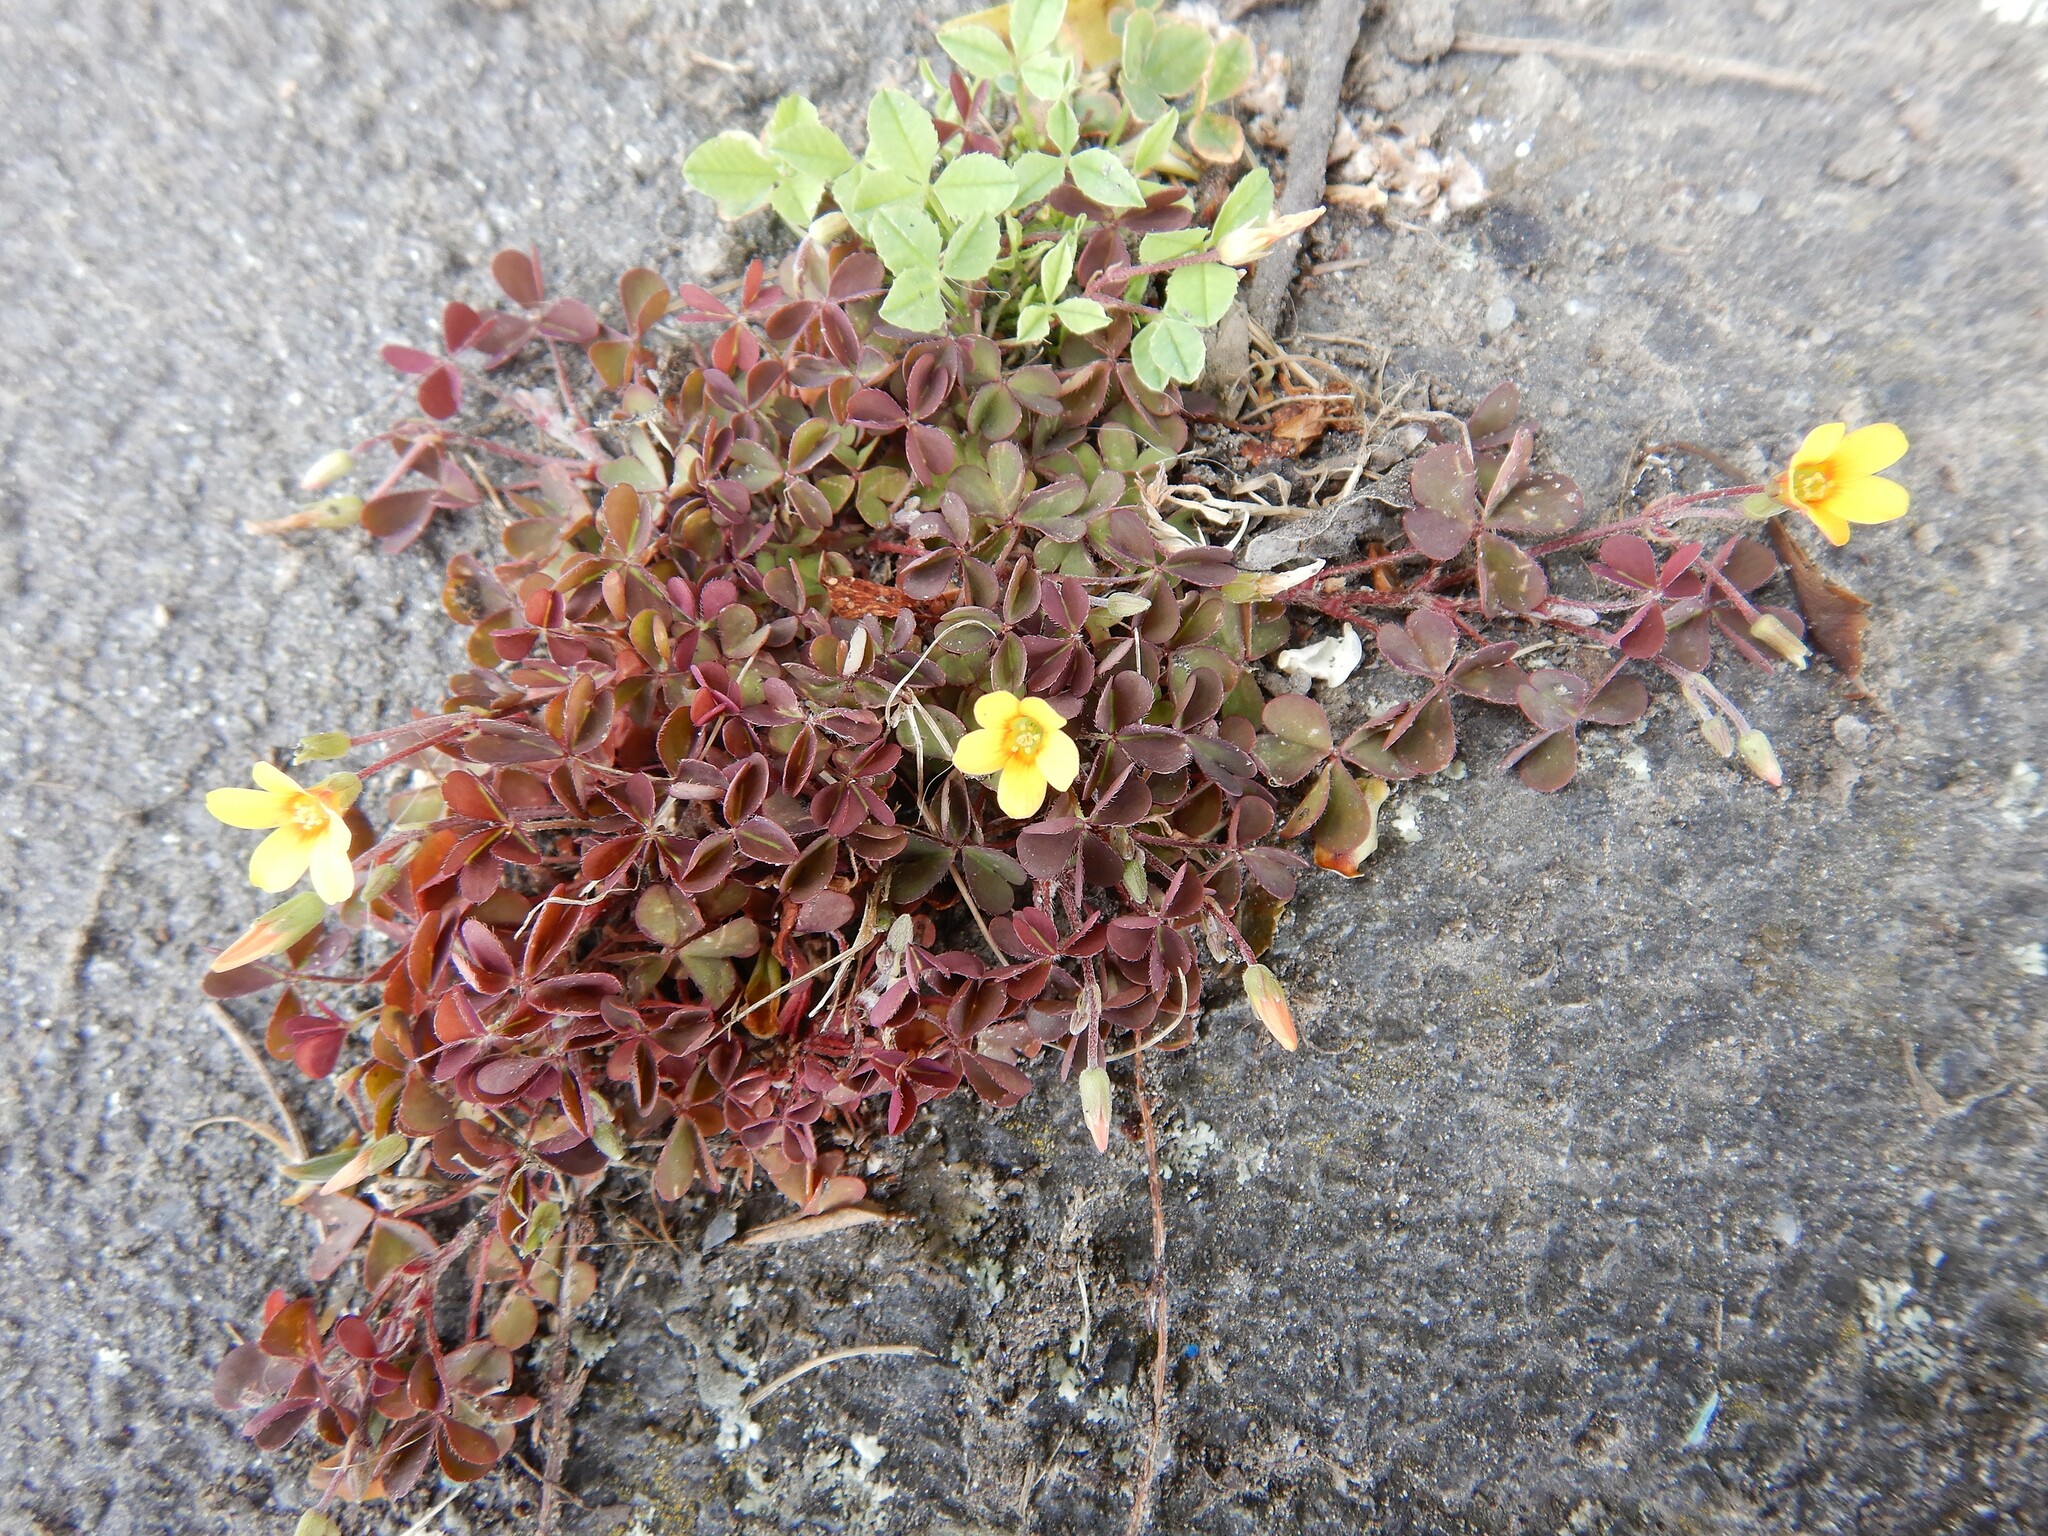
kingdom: Plantae
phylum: Tracheophyta
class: Magnoliopsida
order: Oxalidales
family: Oxalidaceae
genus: Oxalis
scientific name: Oxalis corniculata
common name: Procumbent yellow-sorrel
